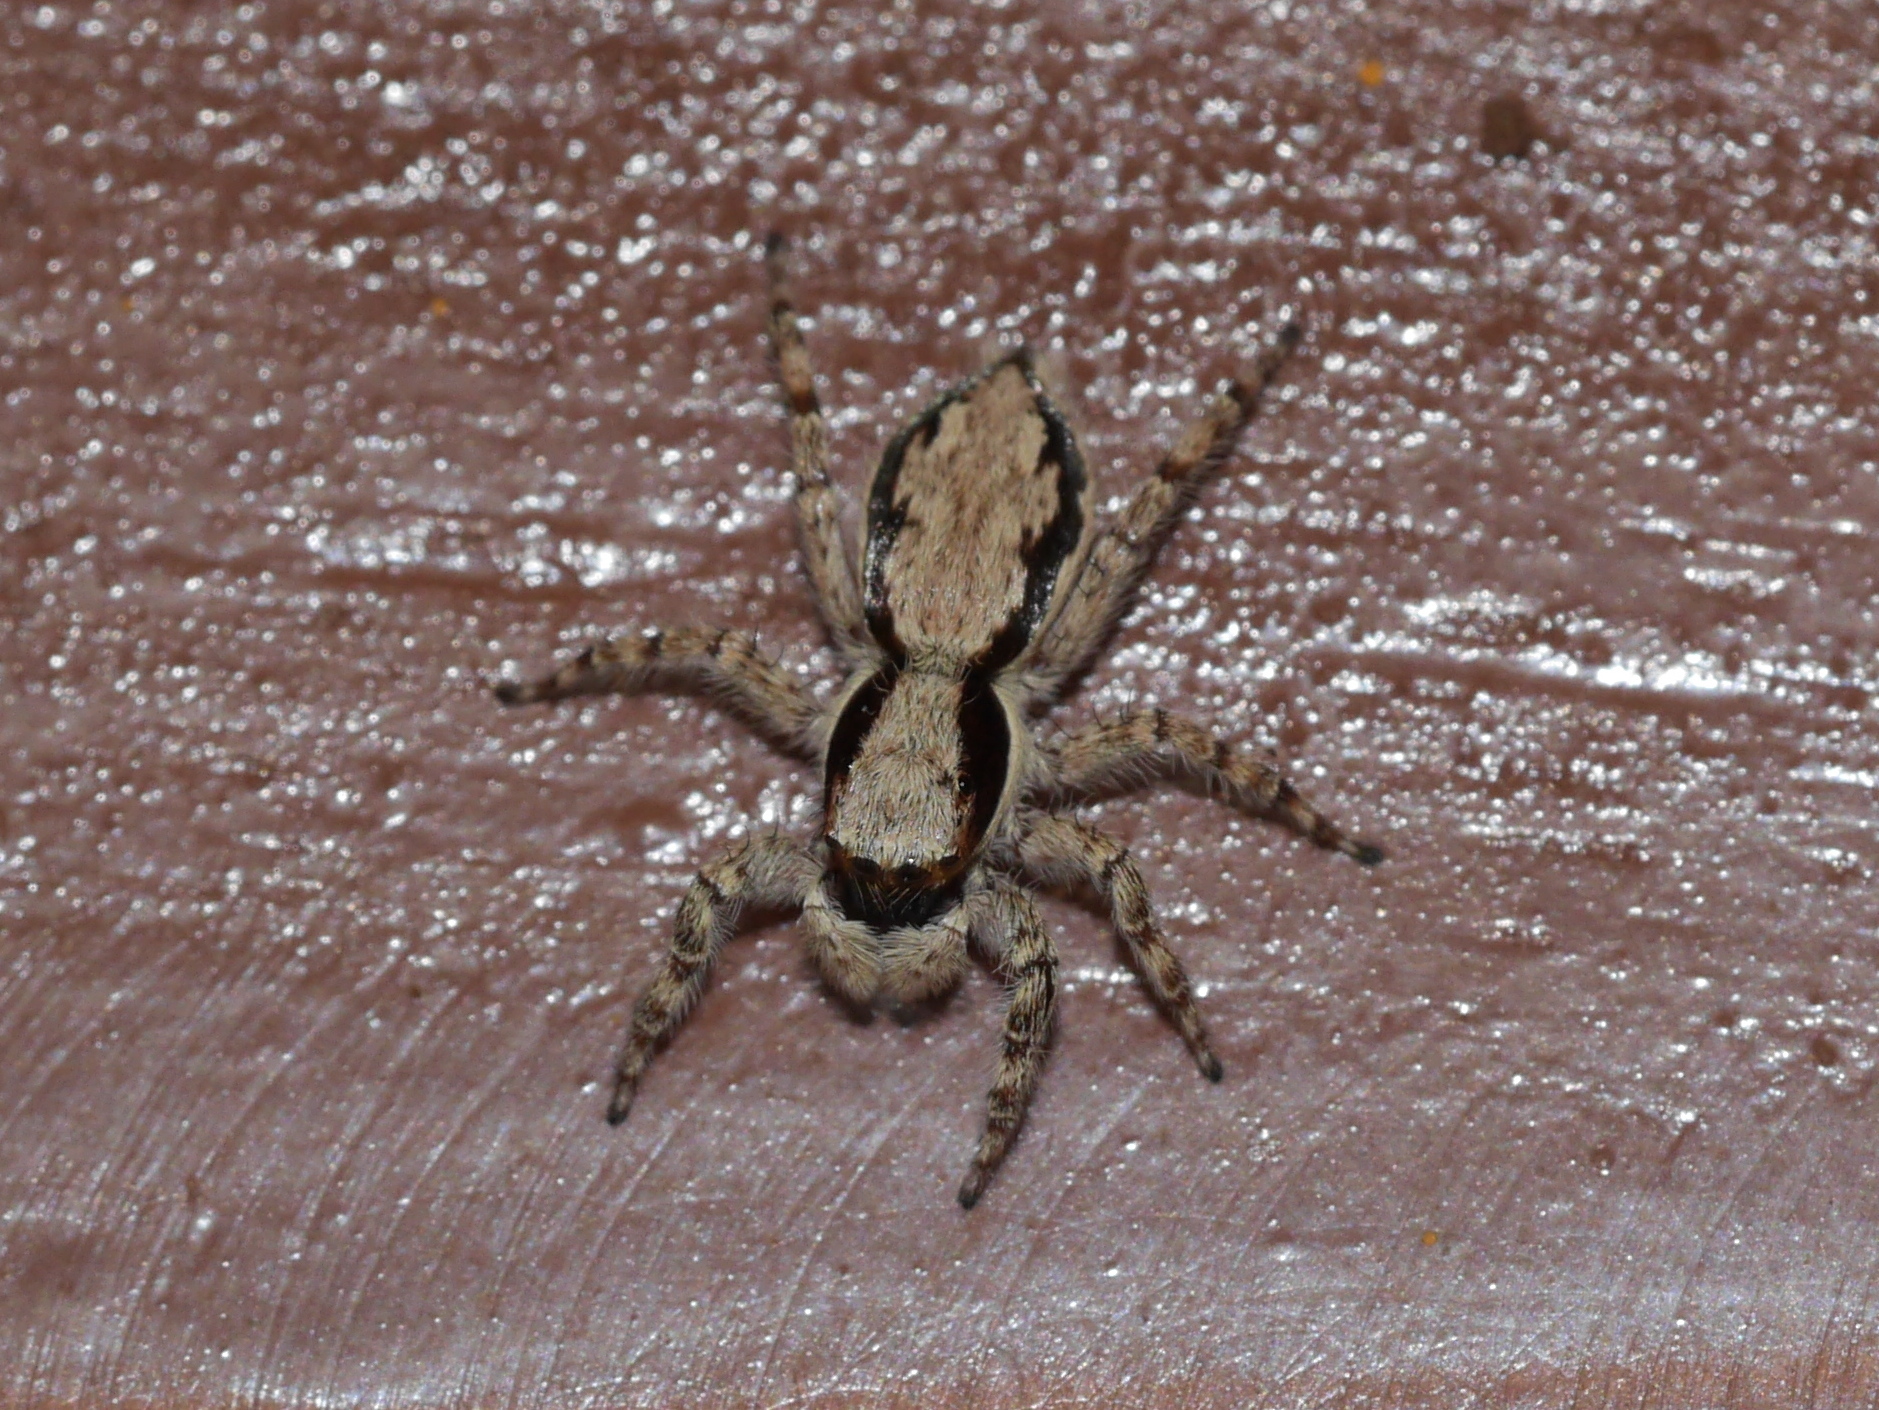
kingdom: Animalia
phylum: Arthropoda
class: Arachnida
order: Araneae
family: Salticidae
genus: Menemerus
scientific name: Menemerus bivittatus
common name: Gray wall jumper
